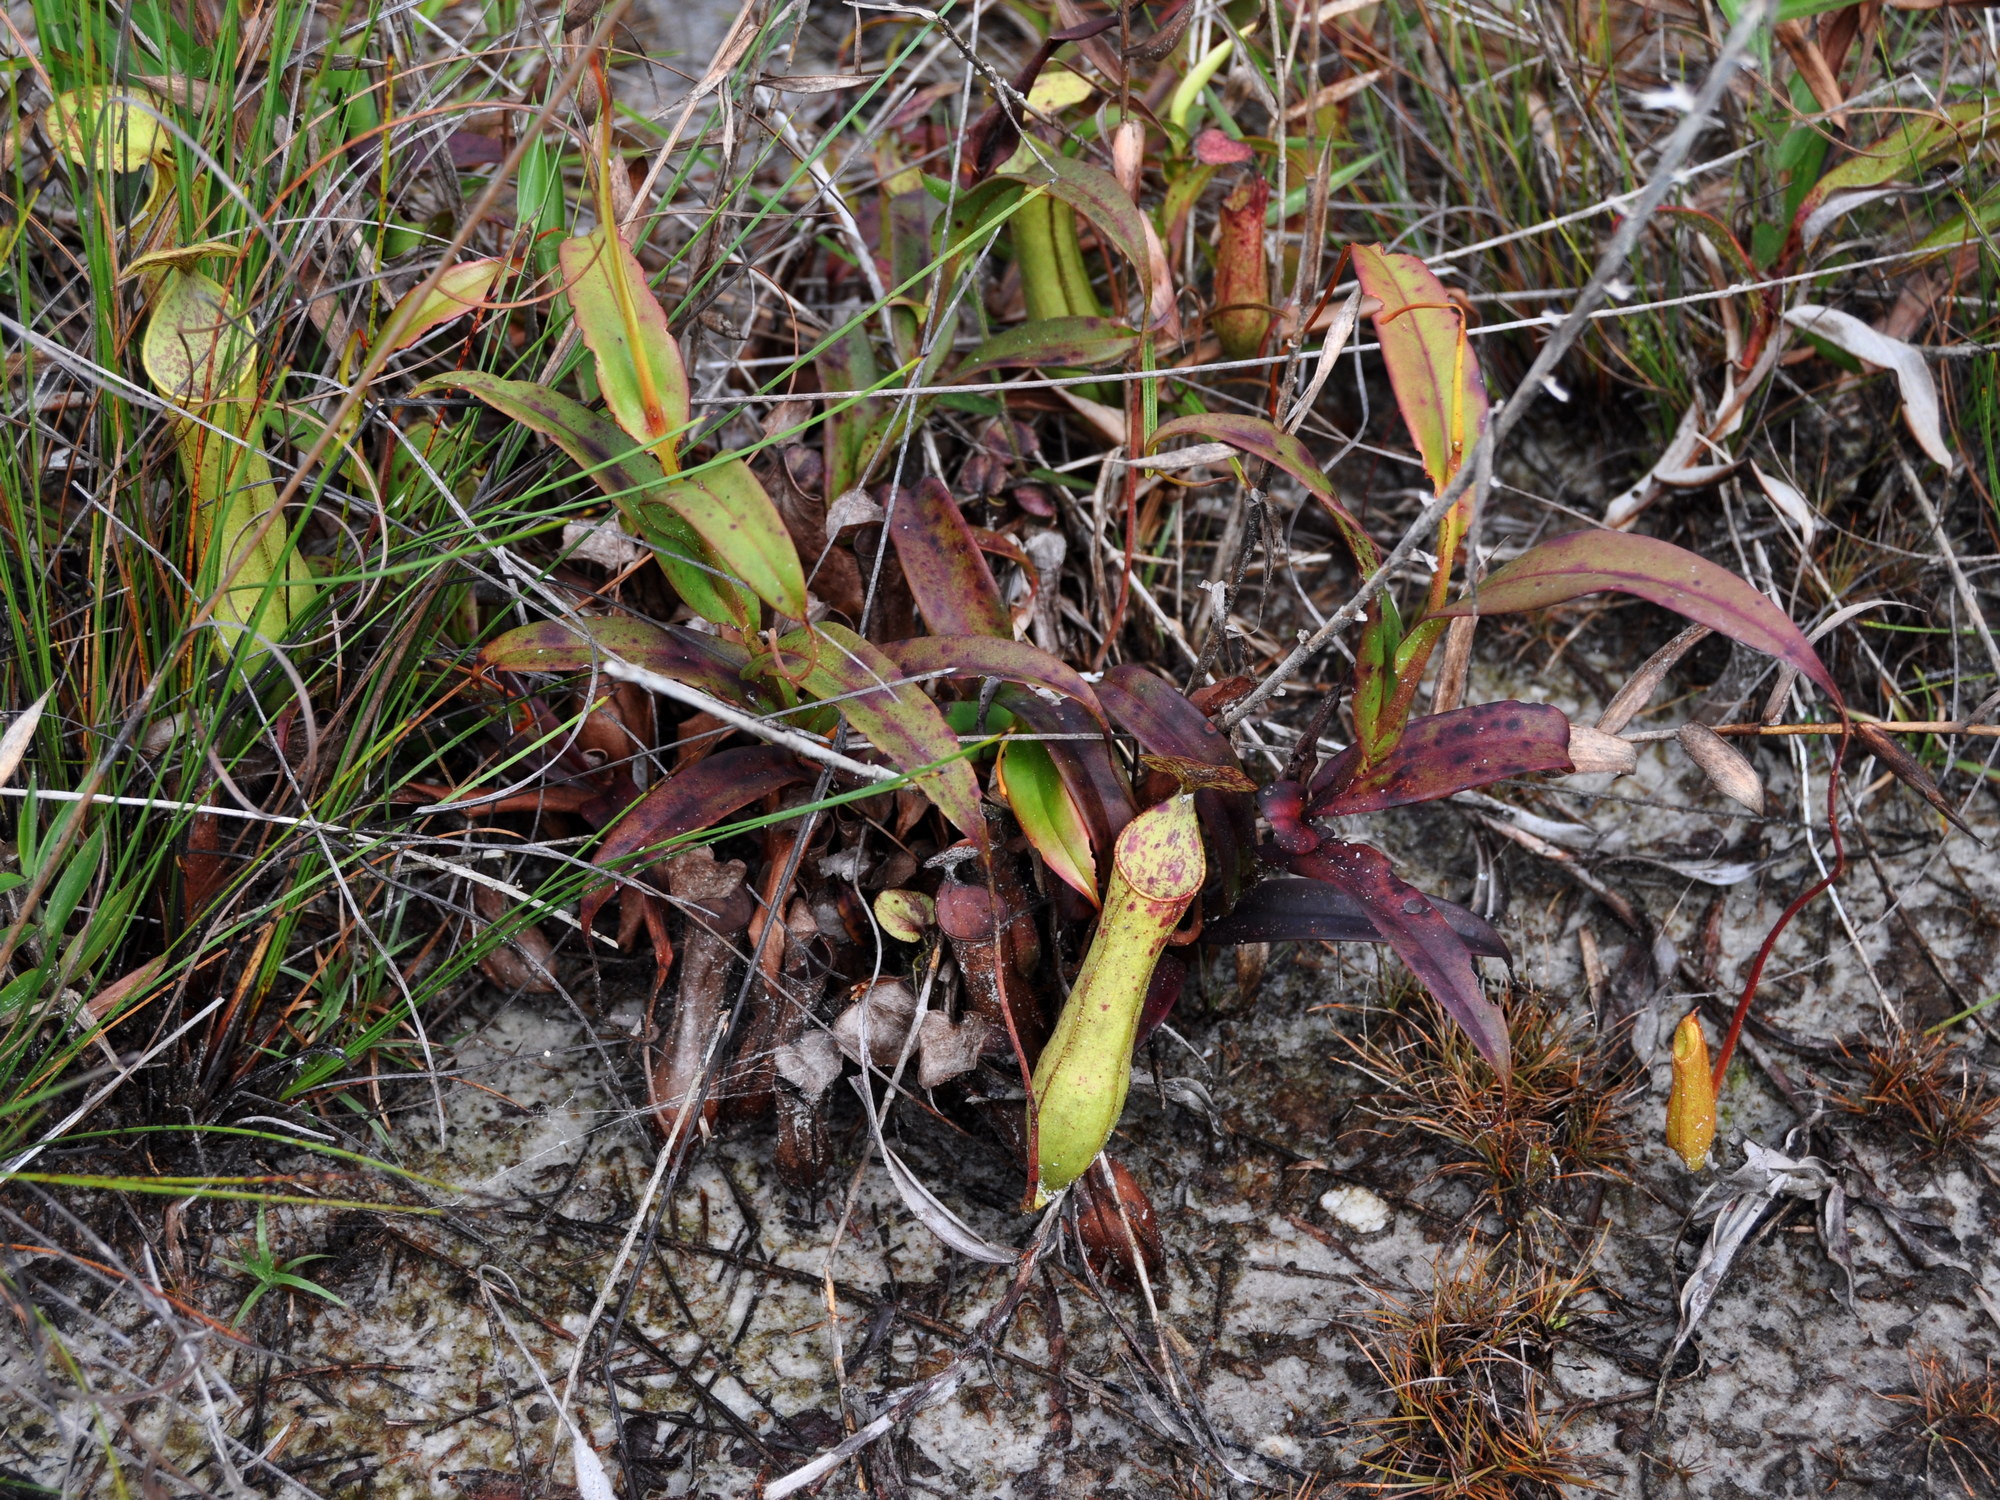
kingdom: Plantae
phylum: Tracheophyta
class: Magnoliopsida
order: Caryophyllales
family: Nepenthaceae
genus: Nepenthes
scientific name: Nepenthes gracilis
